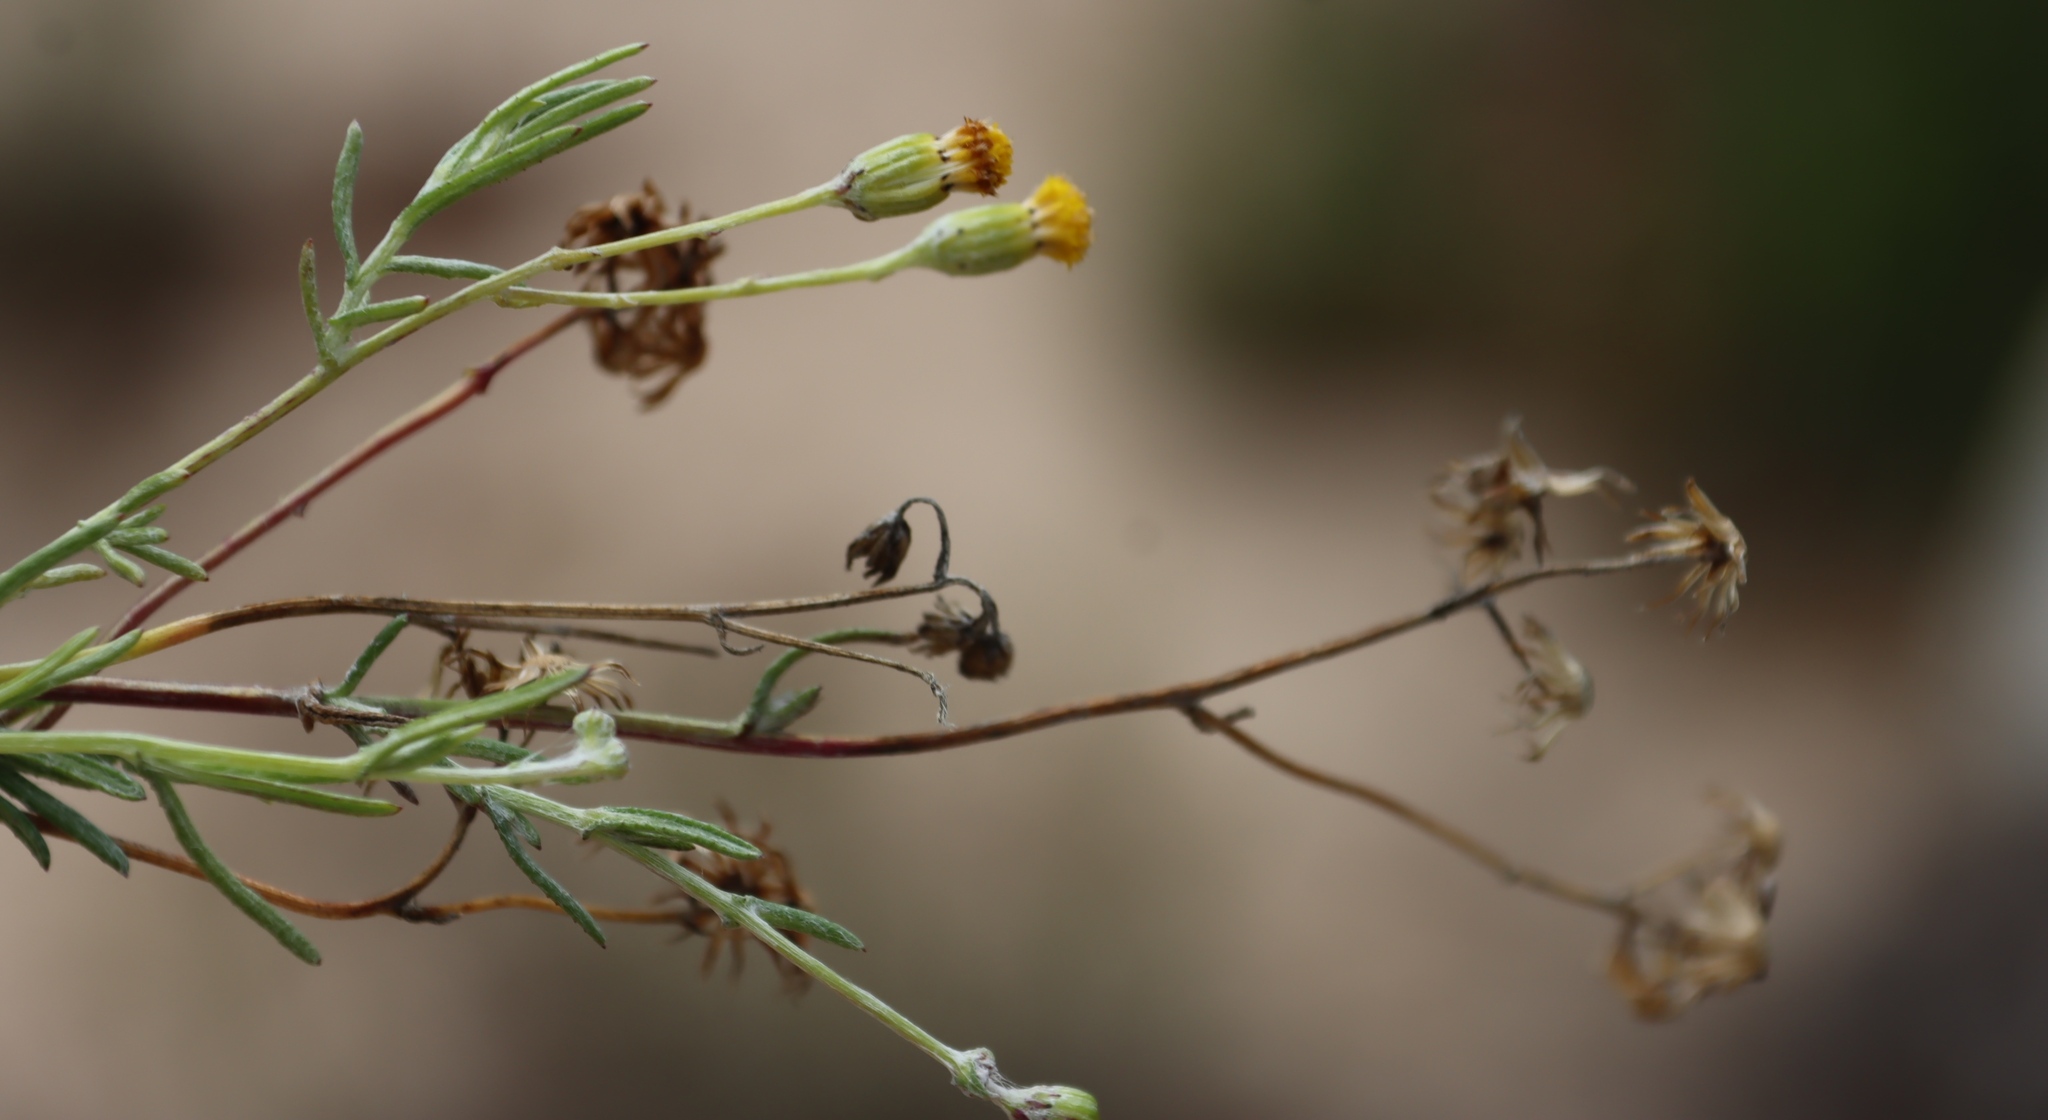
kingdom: Plantae
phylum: Tracheophyta
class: Magnoliopsida
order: Asterales
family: Asteraceae
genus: Senecio
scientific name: Senecio niveus
